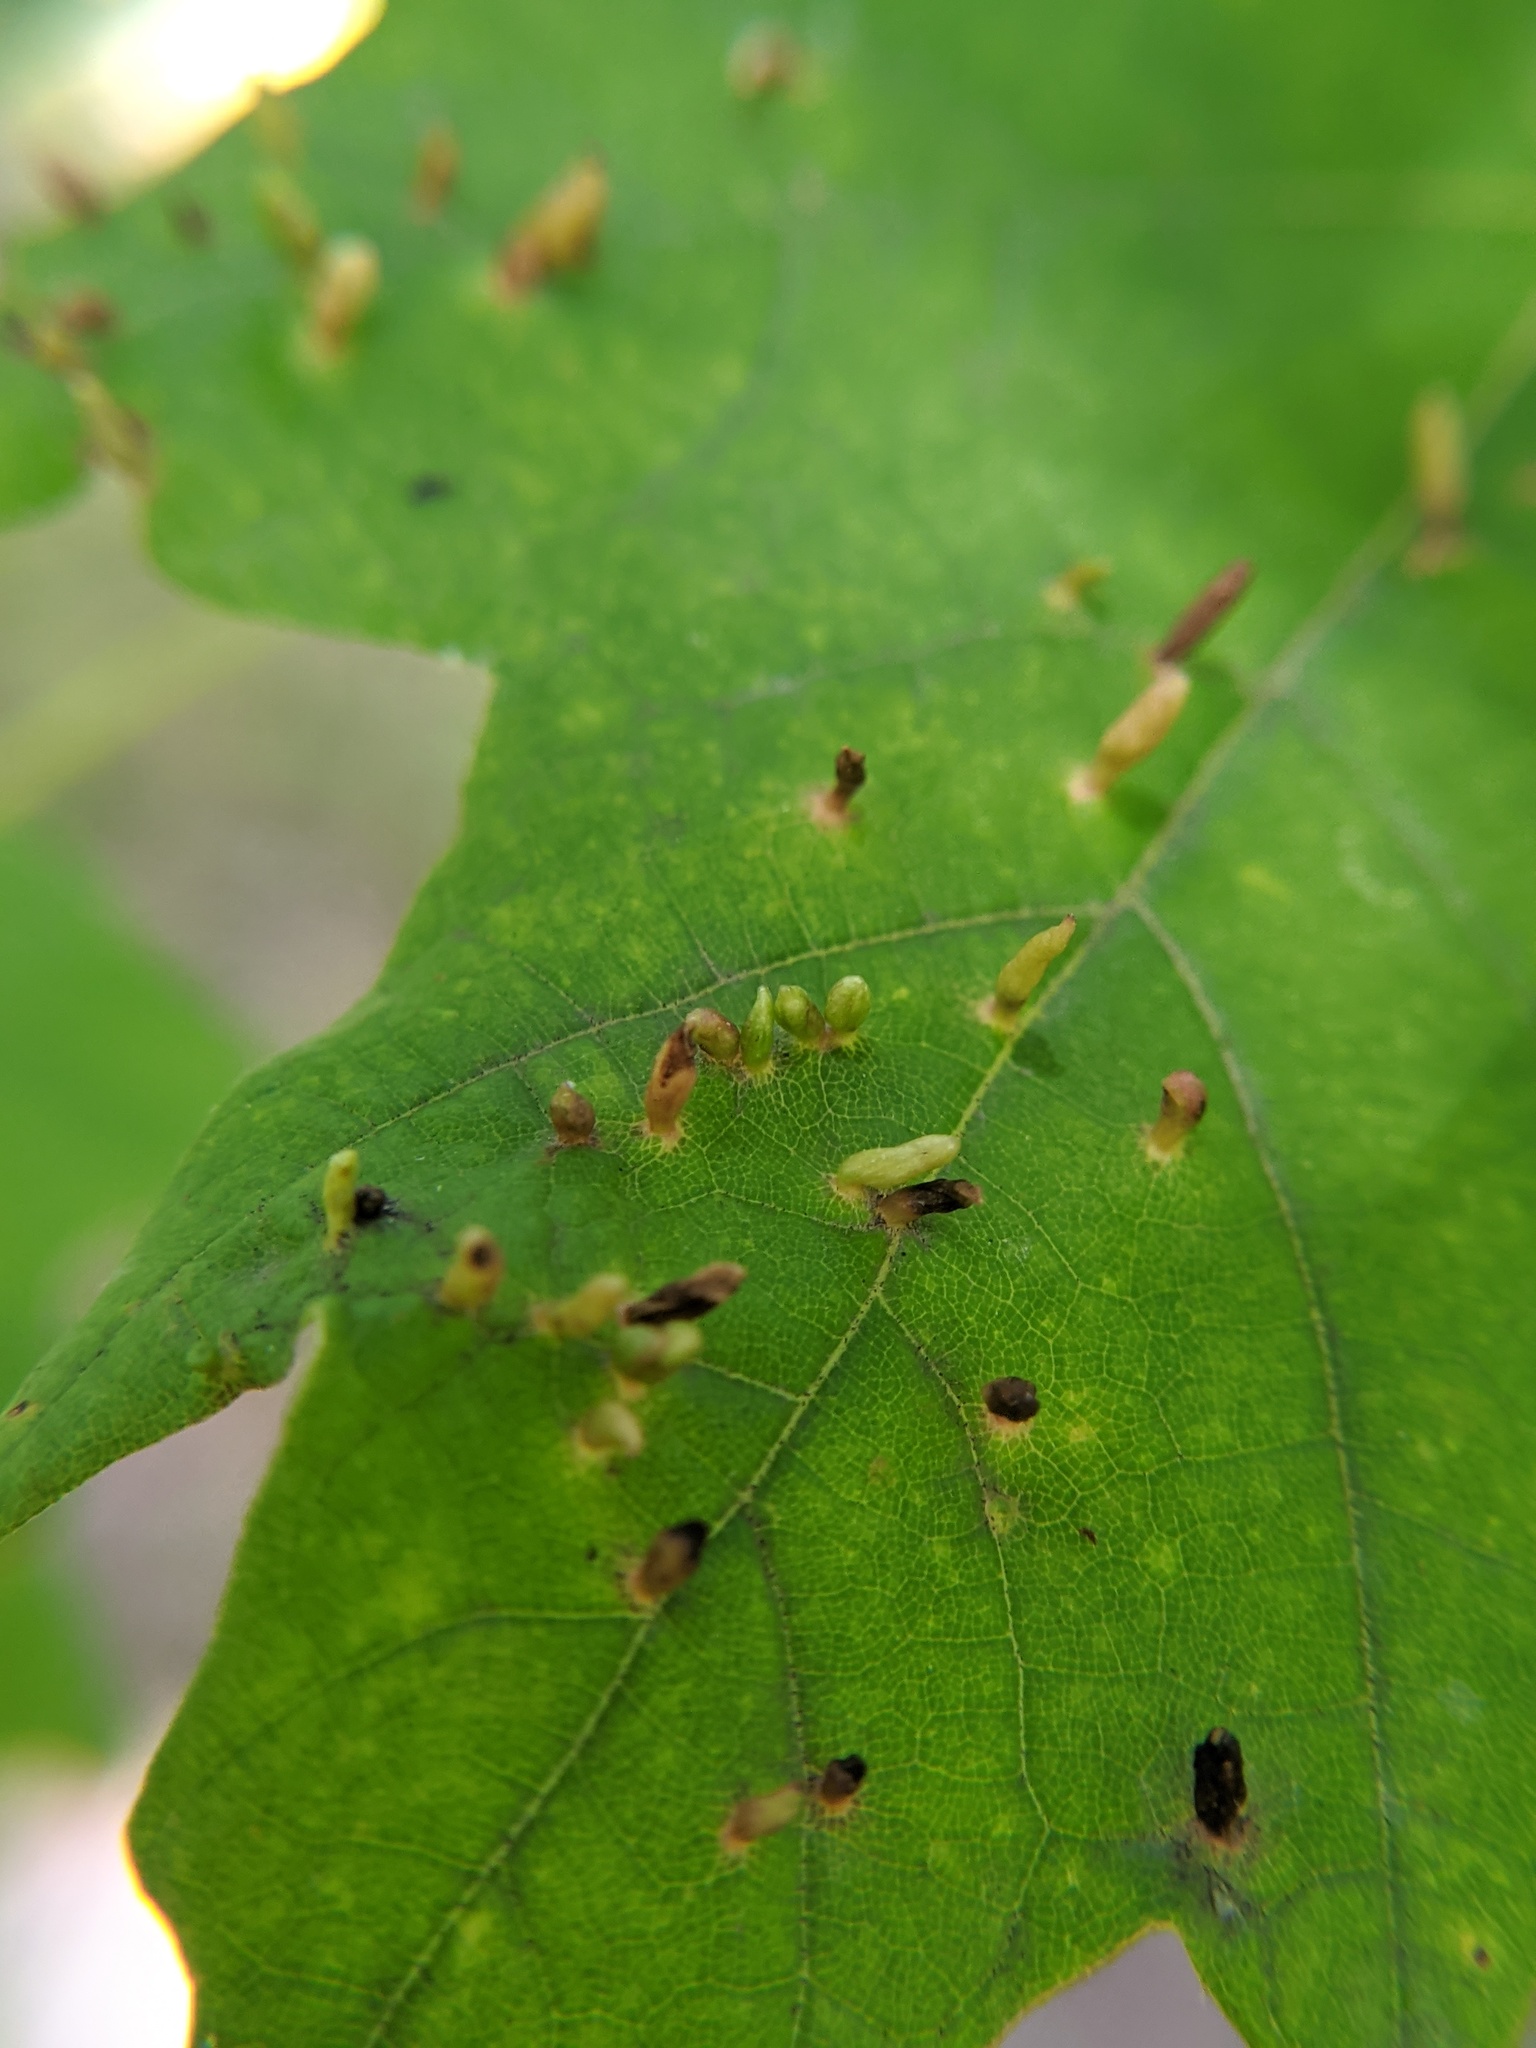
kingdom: Animalia
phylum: Arthropoda
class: Arachnida
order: Trombidiformes
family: Eriophyidae
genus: Vasates
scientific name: Vasates aceriscrumena
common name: Maple spindle gall mite
